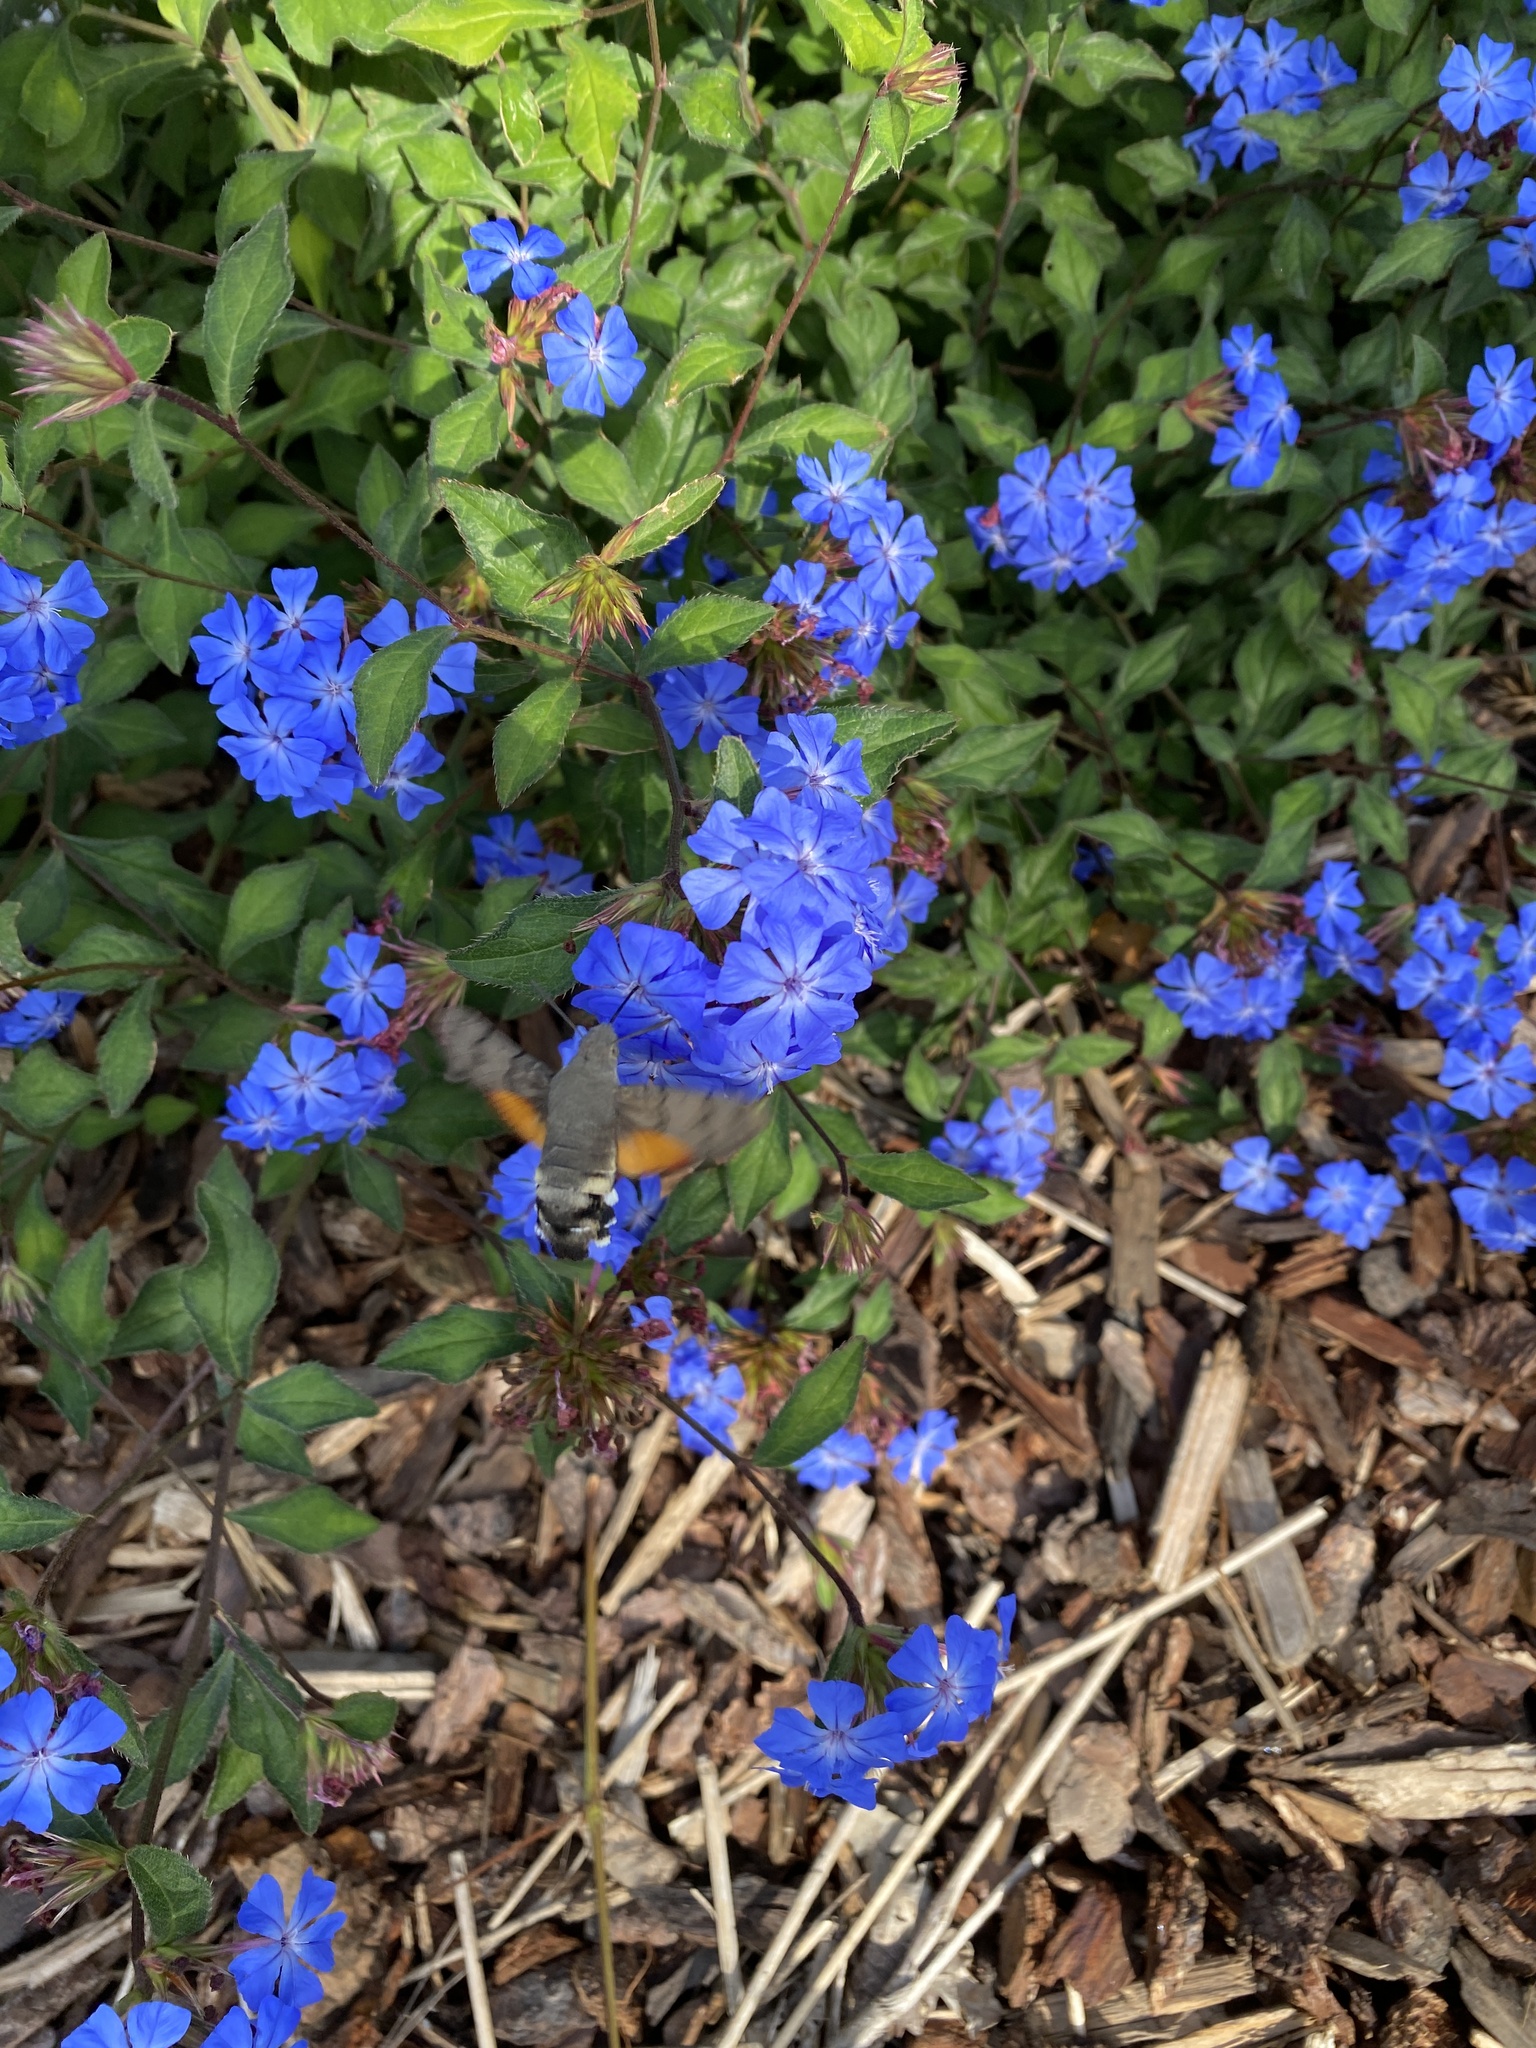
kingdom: Animalia
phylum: Arthropoda
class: Insecta
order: Lepidoptera
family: Sphingidae
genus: Macroglossum
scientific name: Macroglossum stellatarum
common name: Humming-bird hawk-moth
